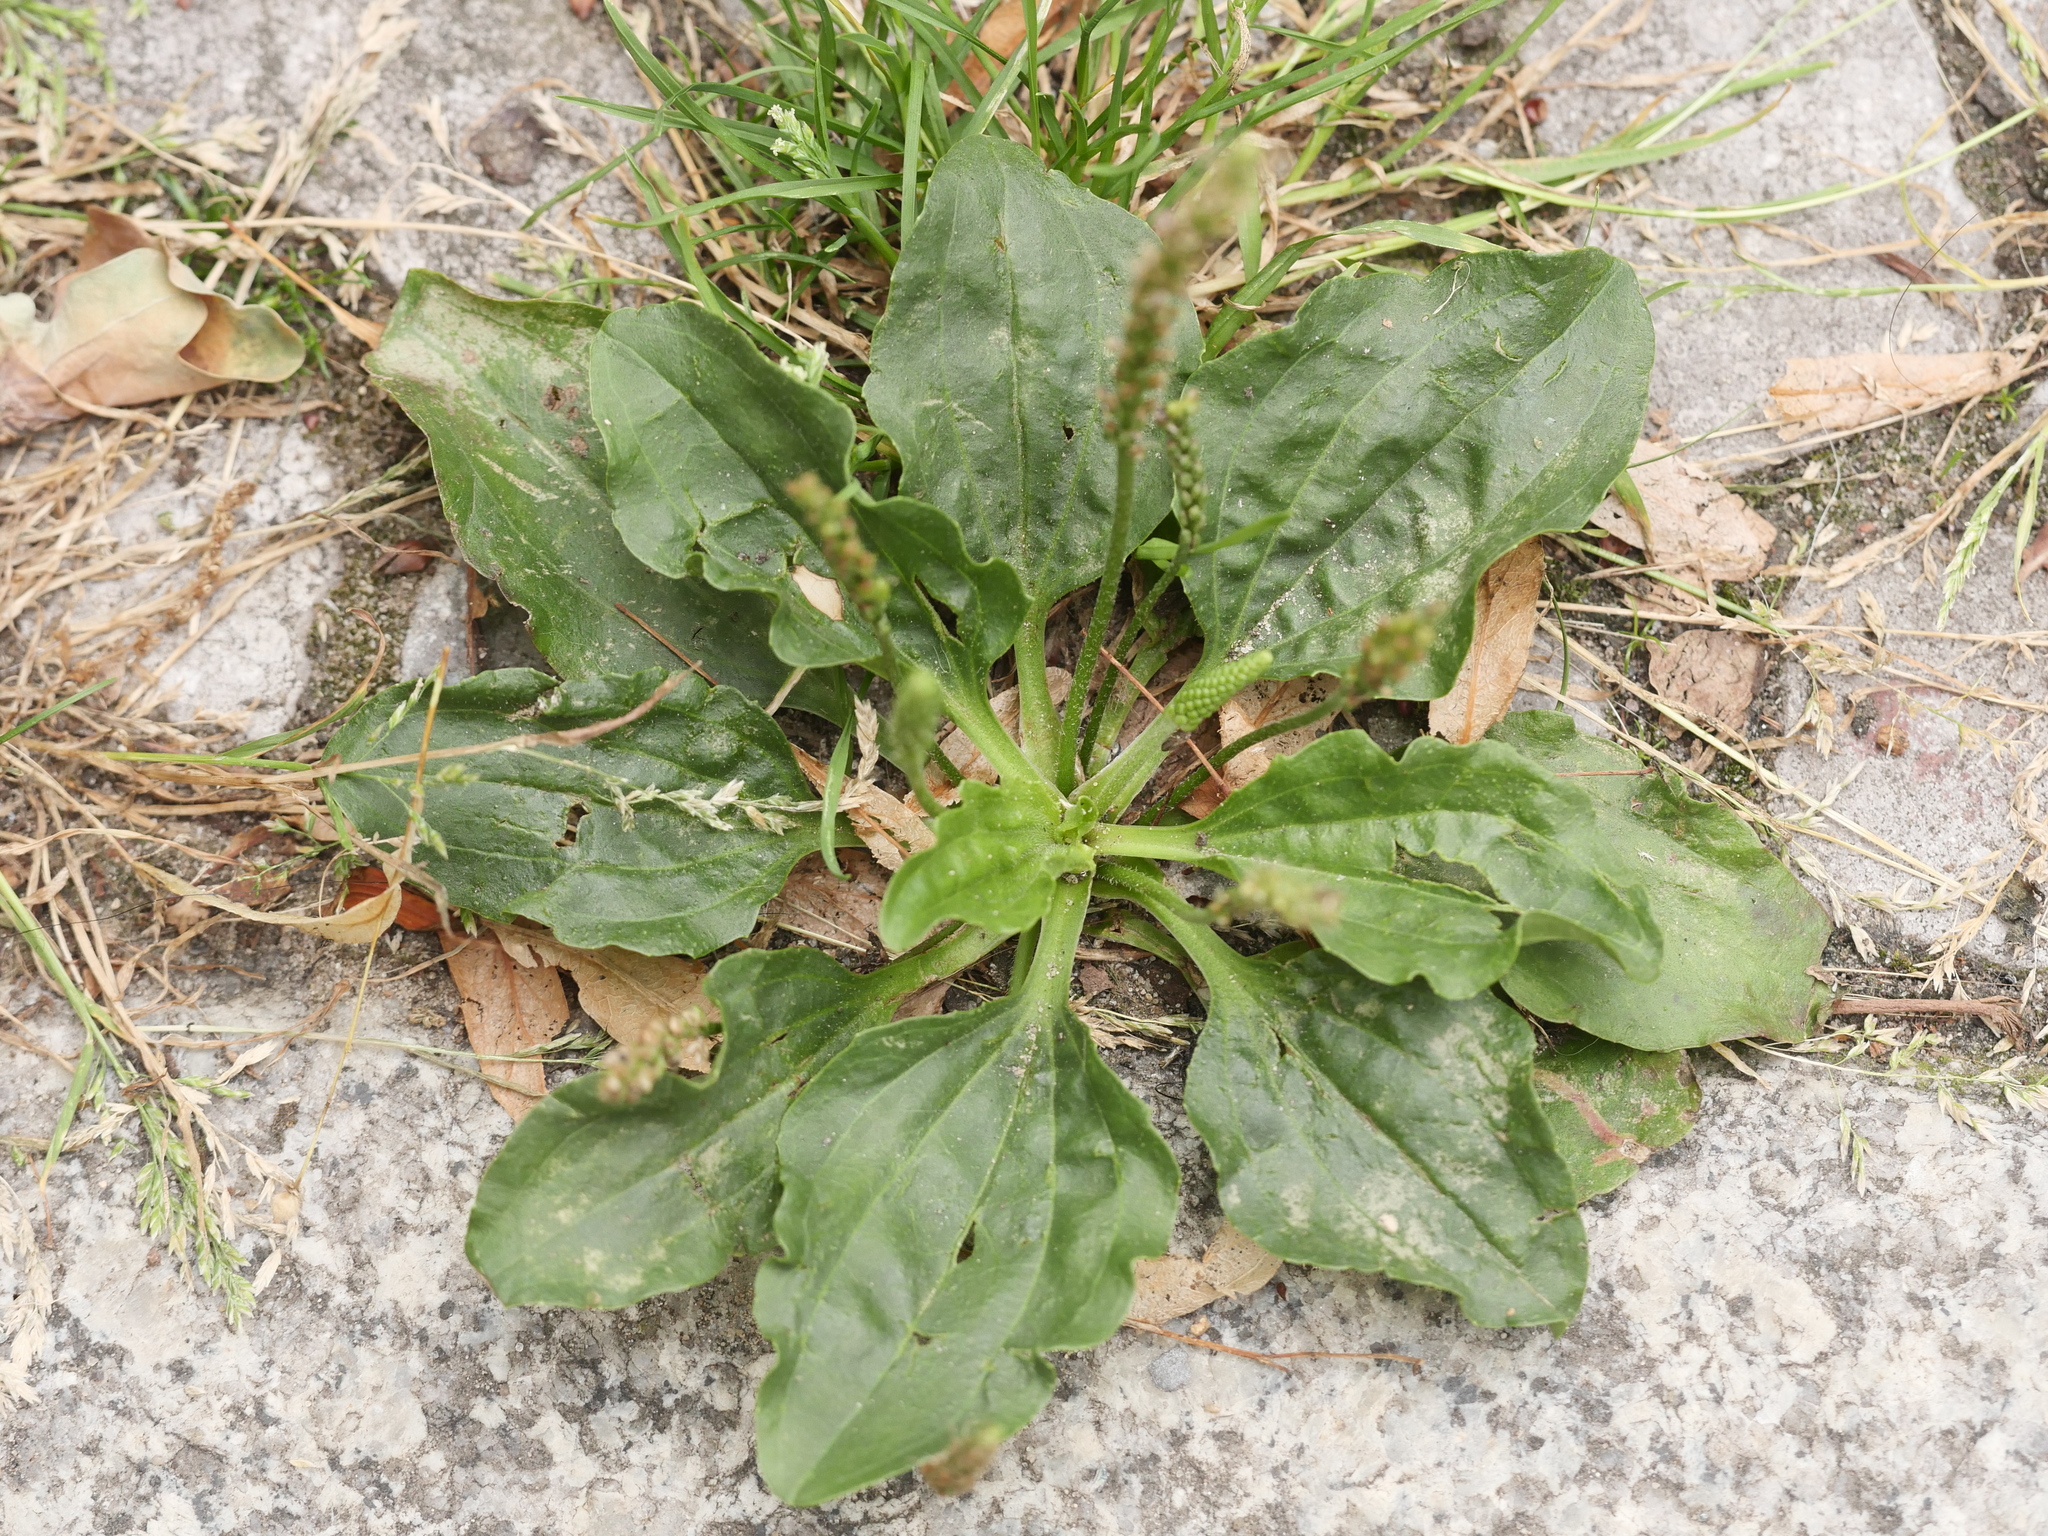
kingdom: Plantae
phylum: Tracheophyta
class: Magnoliopsida
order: Lamiales
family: Plantaginaceae
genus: Plantago
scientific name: Plantago major
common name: Common plantain
